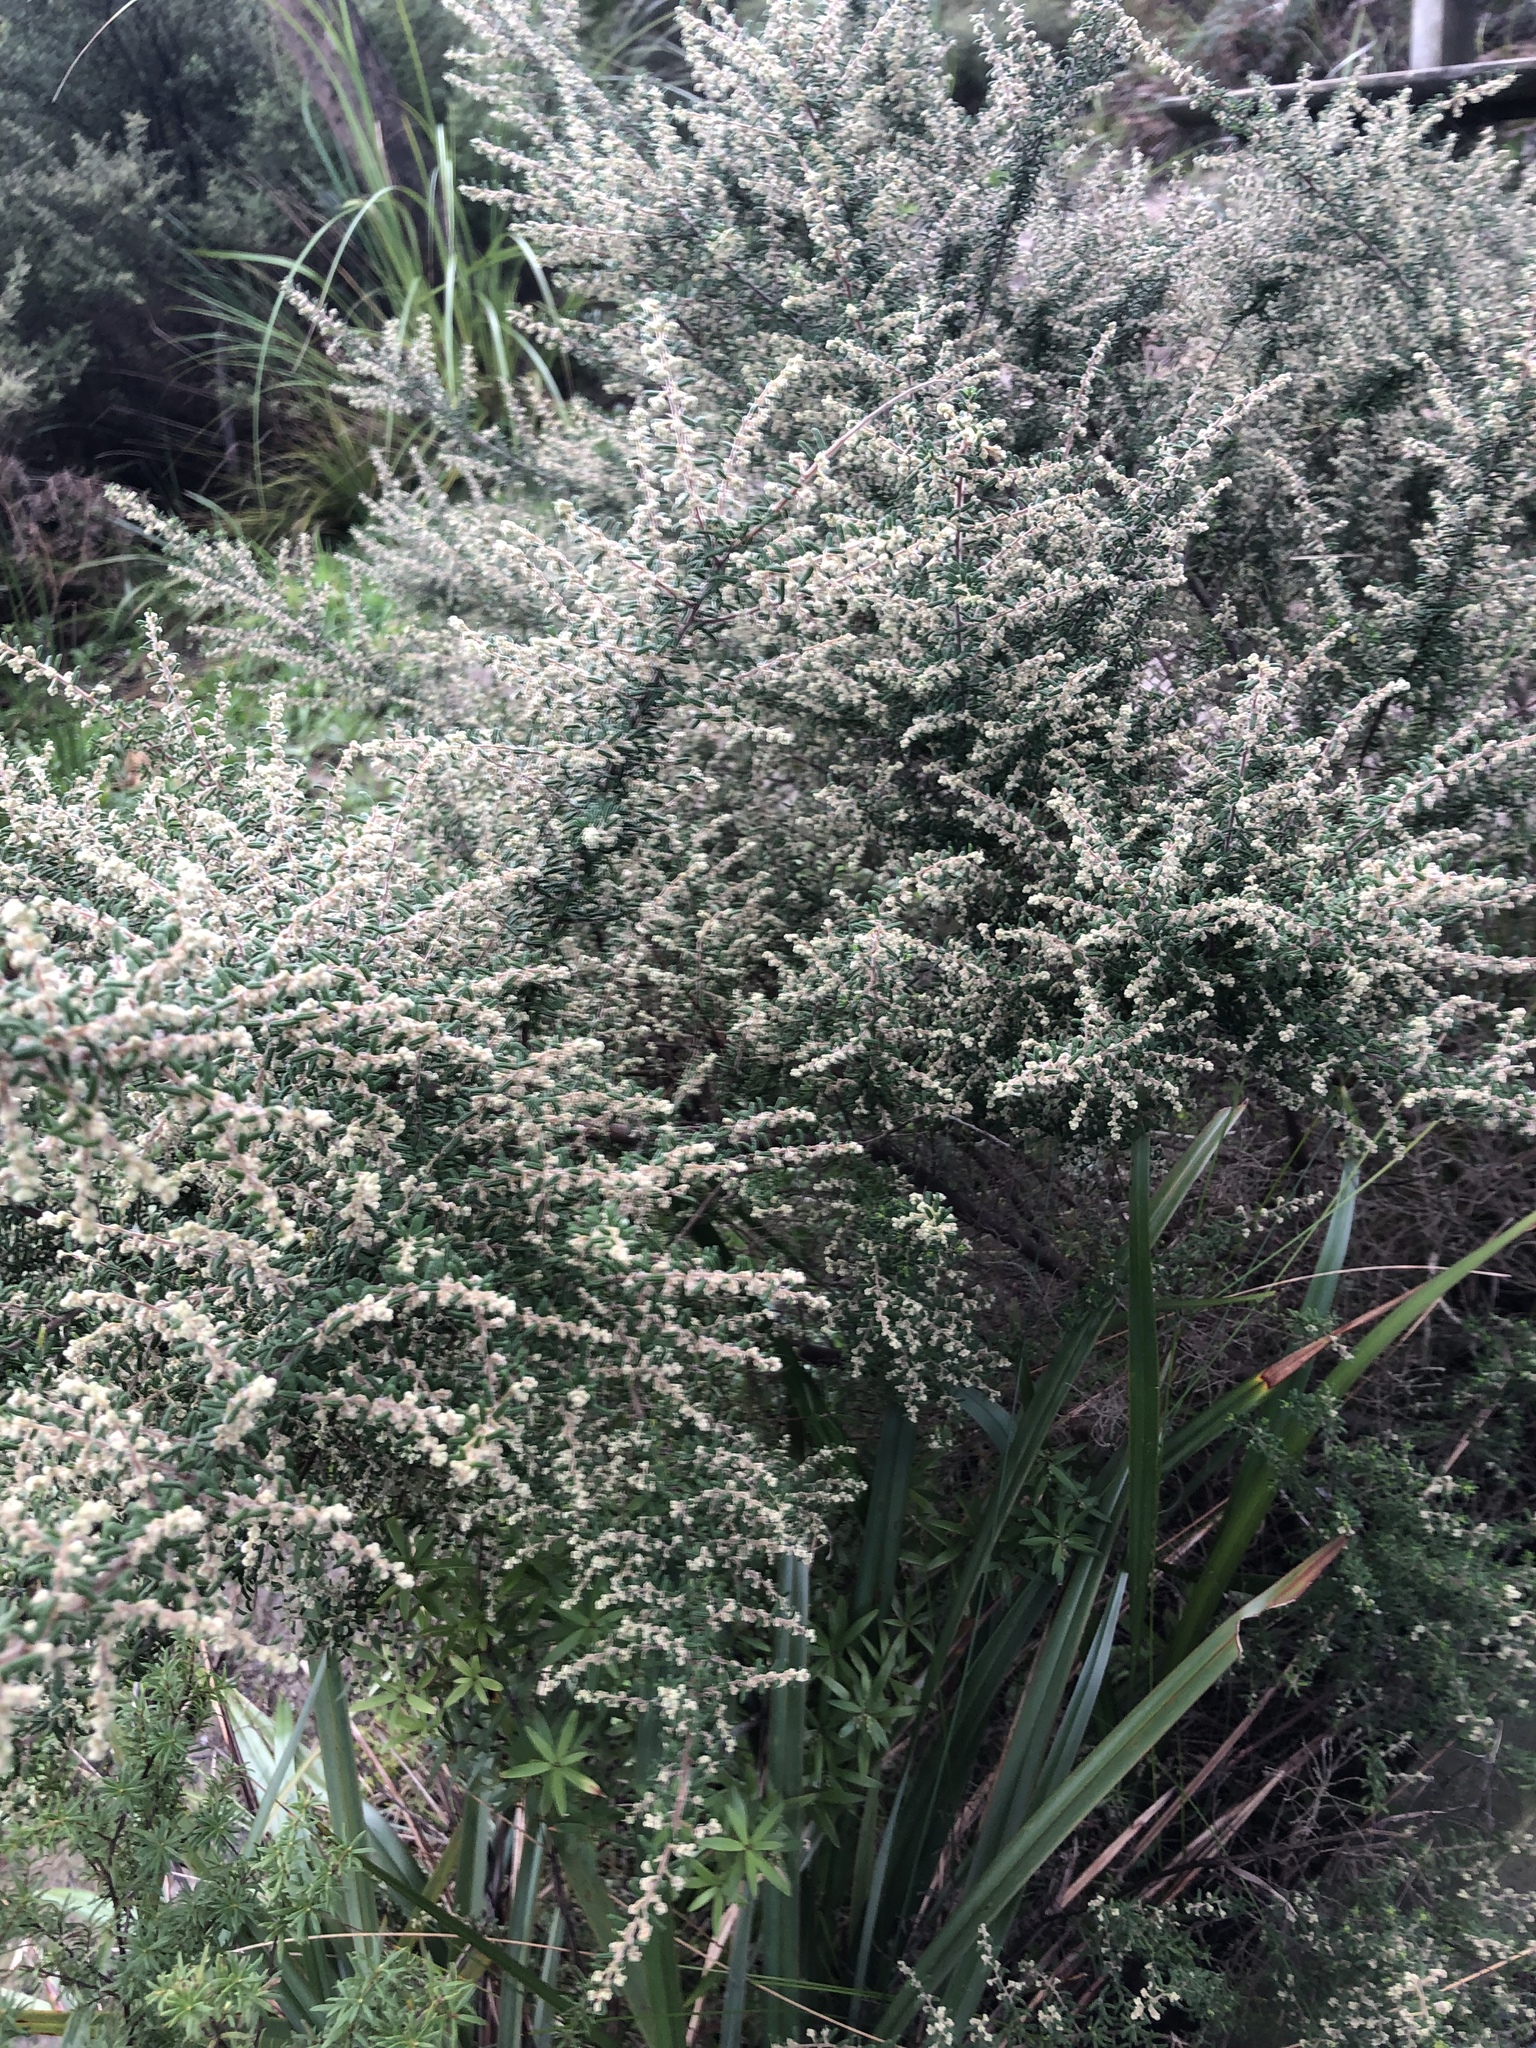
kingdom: Plantae
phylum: Tracheophyta
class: Magnoliopsida
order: Rosales
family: Rhamnaceae
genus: Pomaderris
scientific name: Pomaderris amoena
